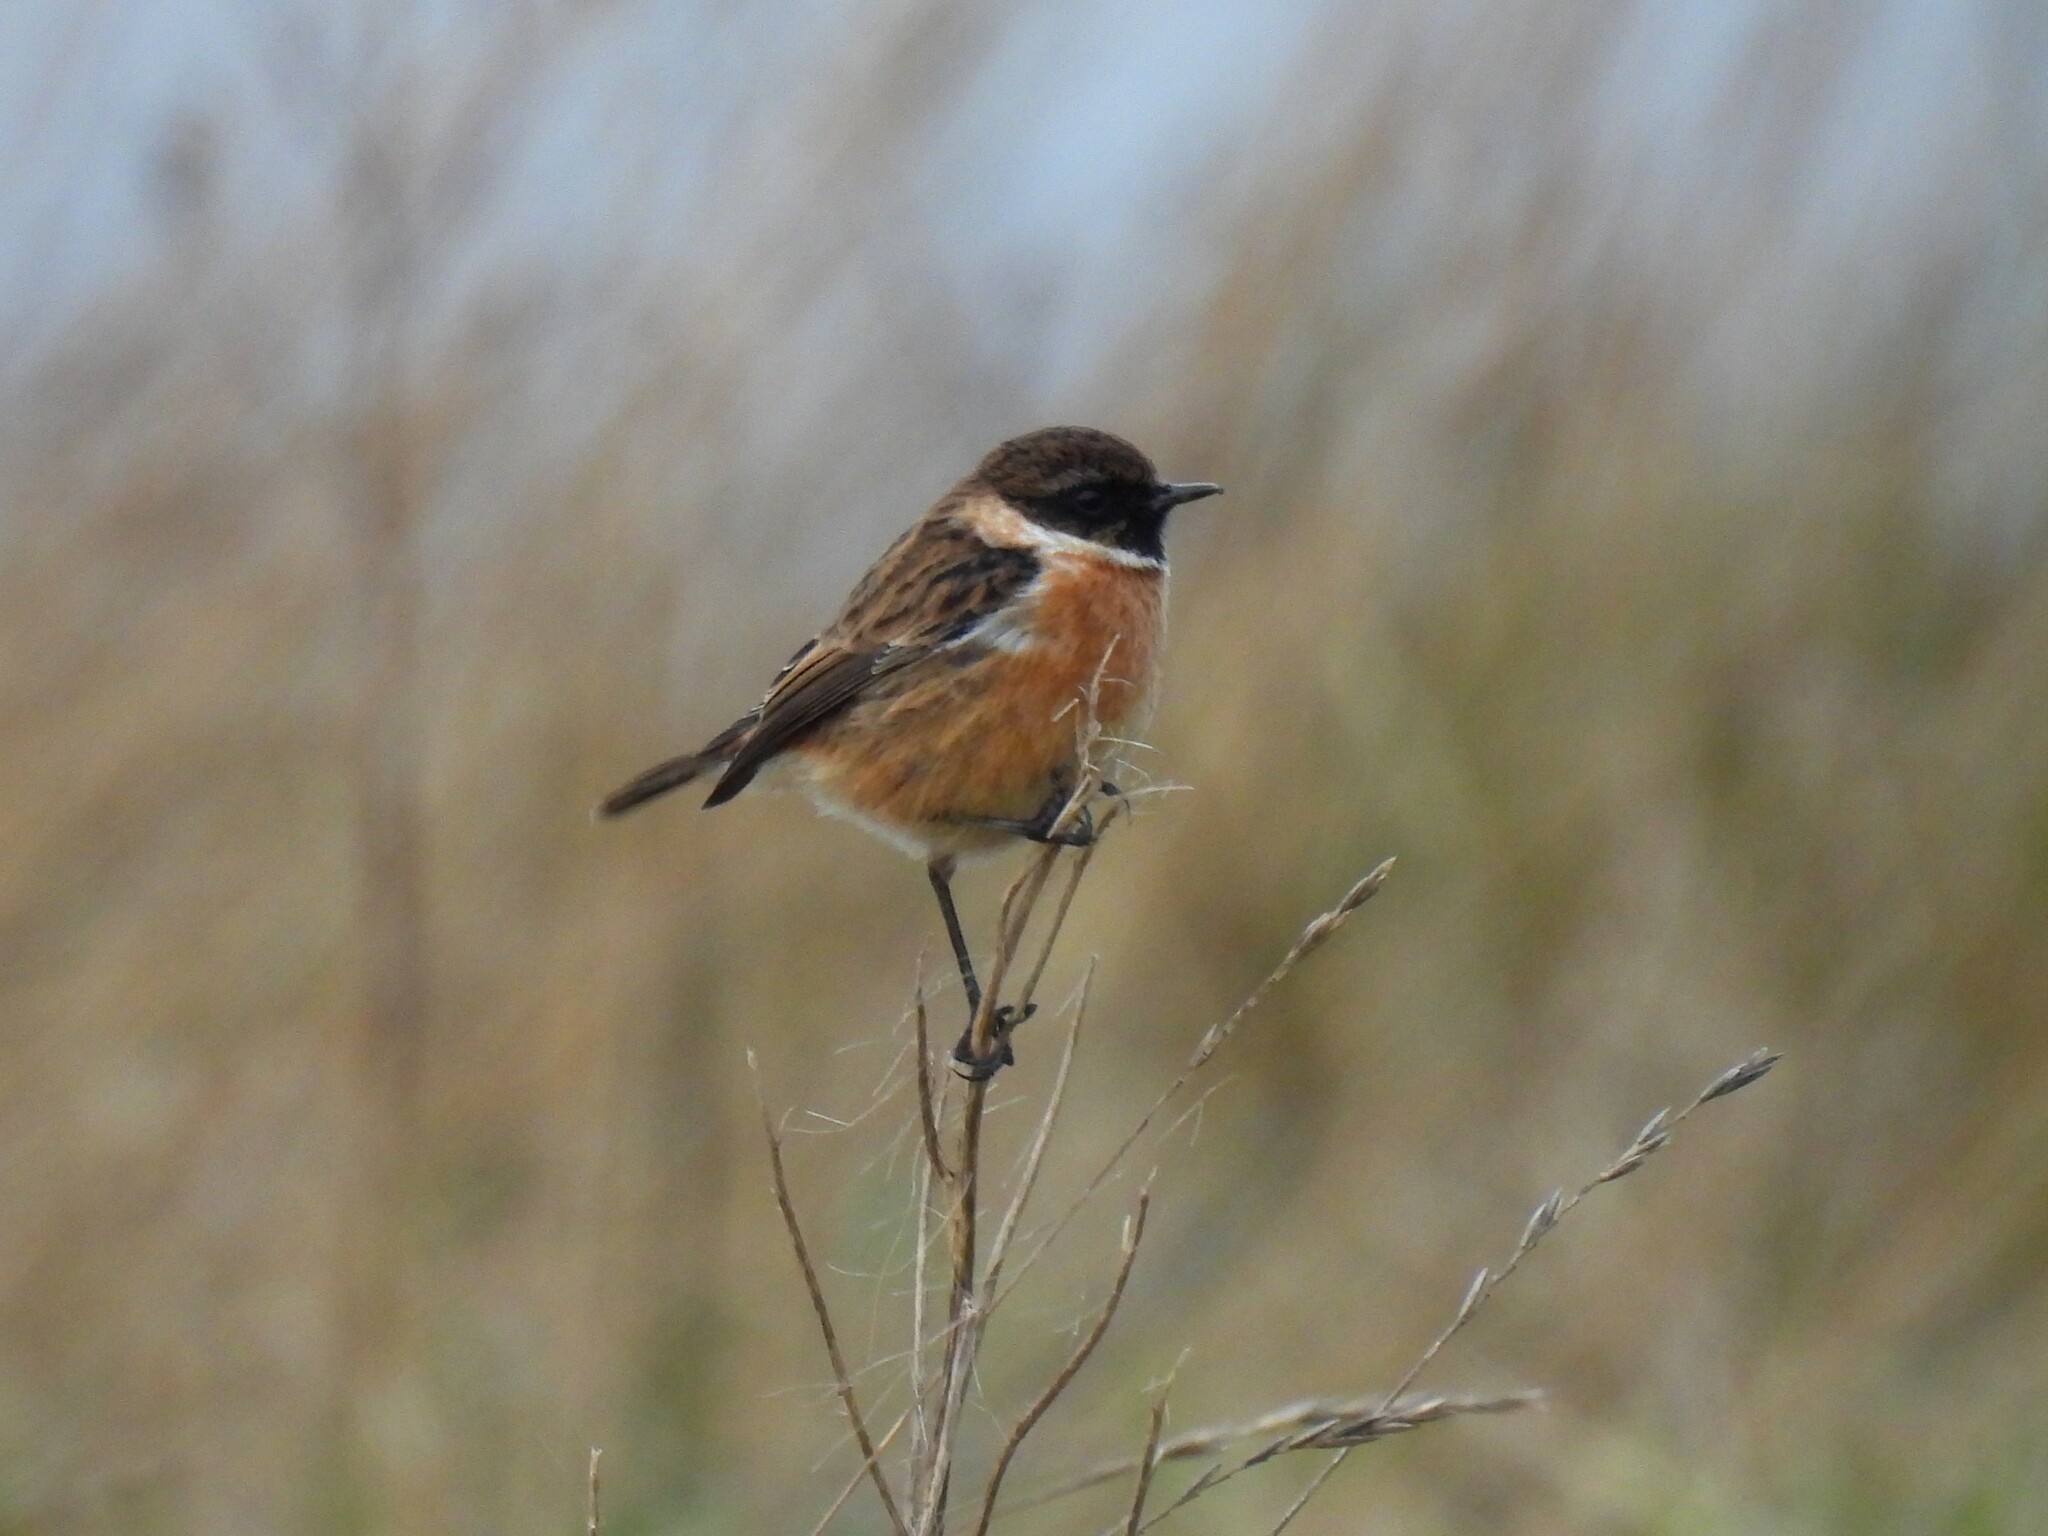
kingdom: Animalia
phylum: Chordata
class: Aves
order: Passeriformes
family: Muscicapidae
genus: Saxicola
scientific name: Saxicola rubicola
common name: European stonechat
